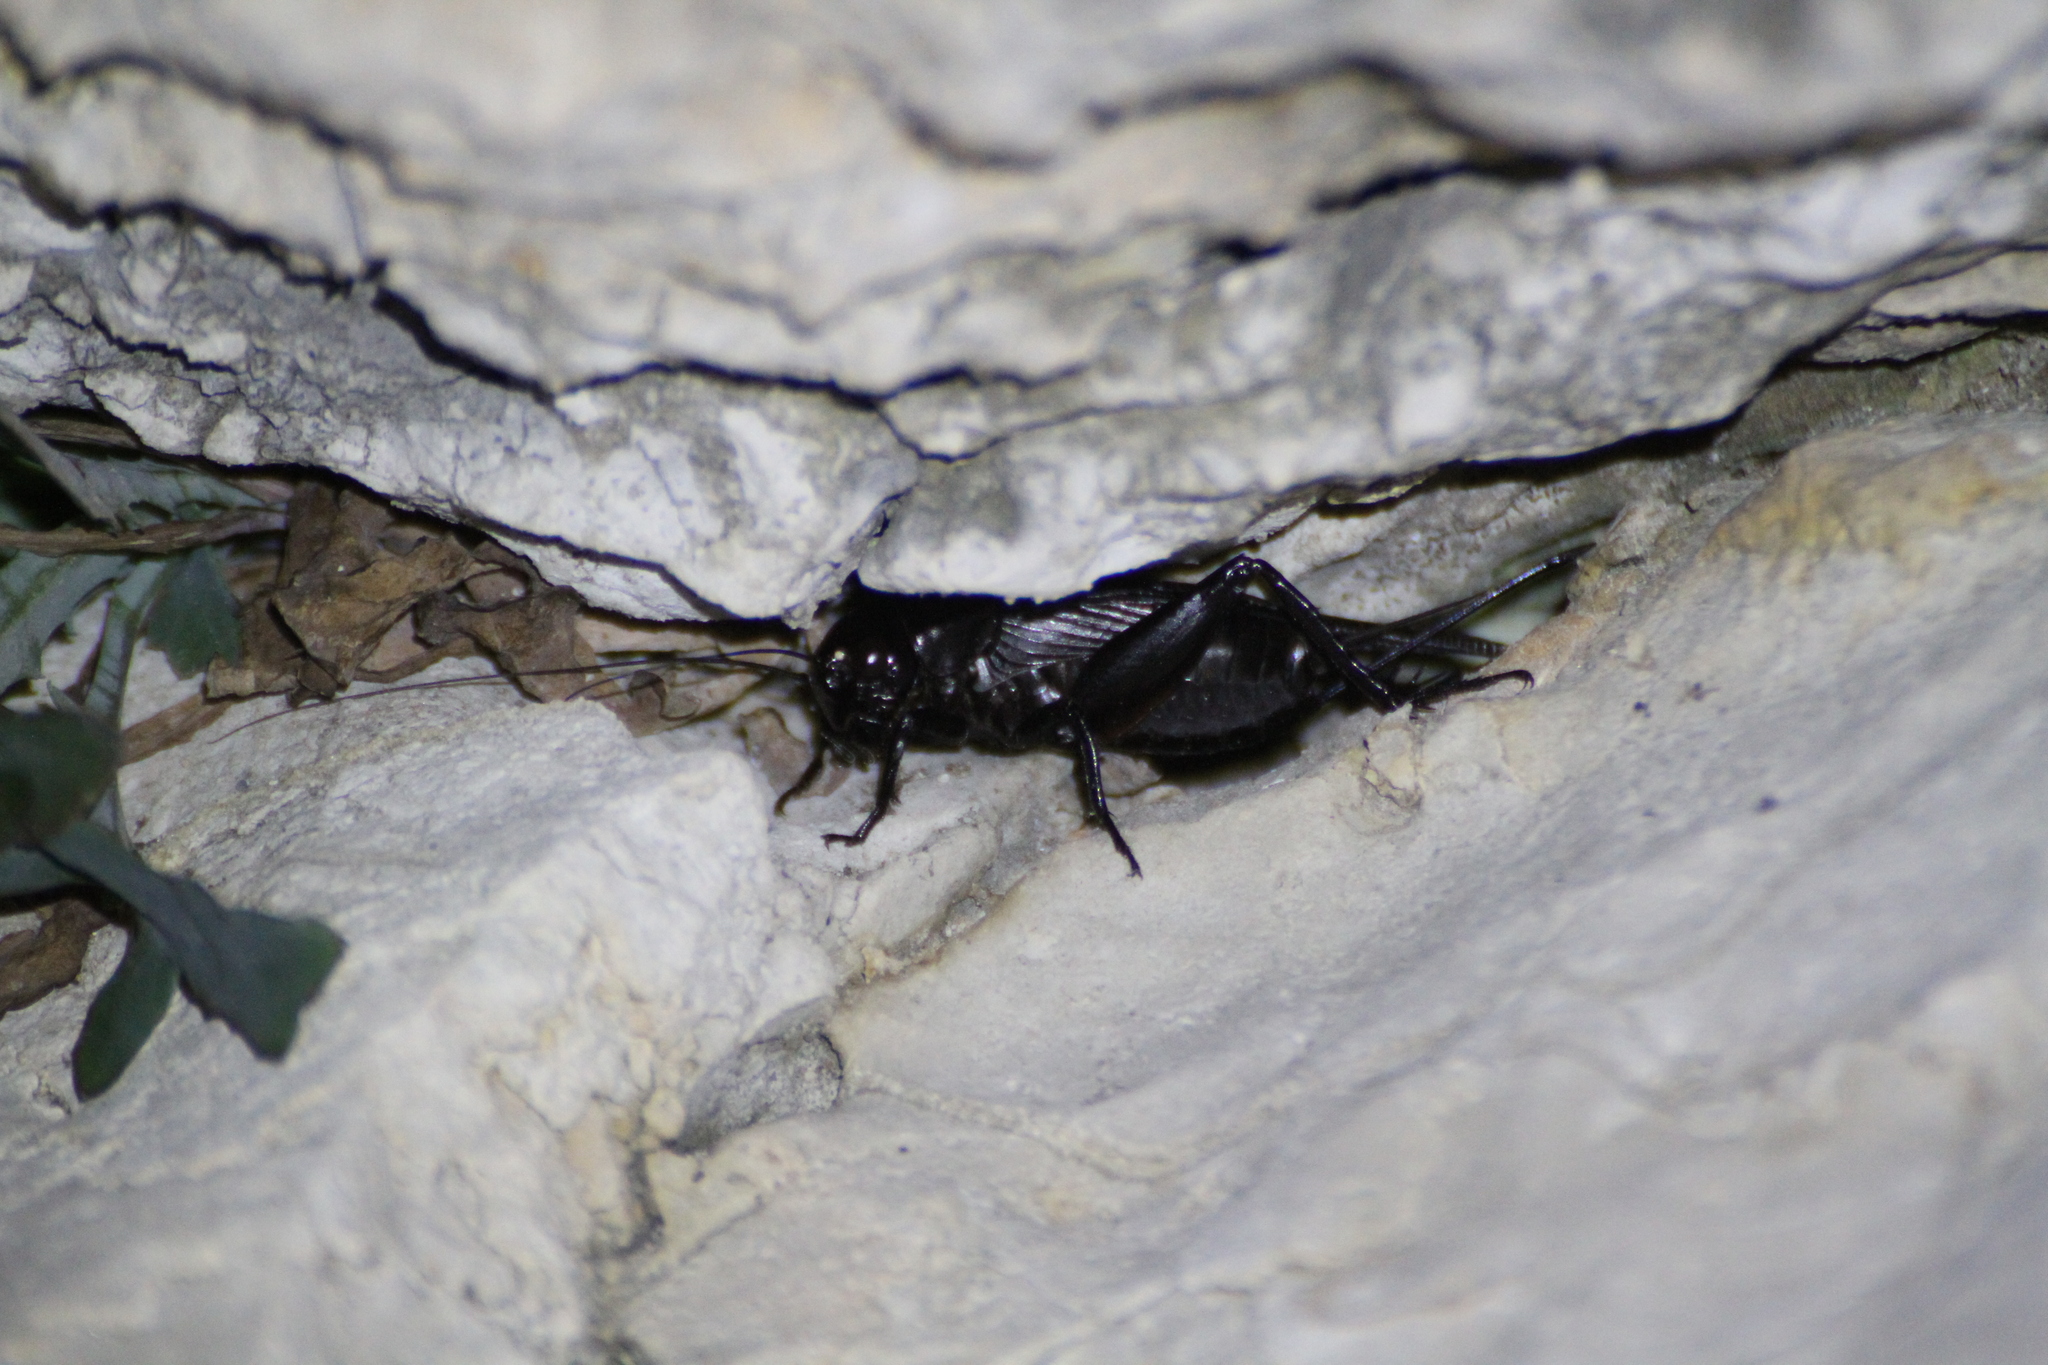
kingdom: Animalia
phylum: Arthropoda
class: Insecta
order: Orthoptera
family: Gryllidae
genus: Gryllus
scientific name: Gryllus bimaculatus
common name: Two-spotted cricket
